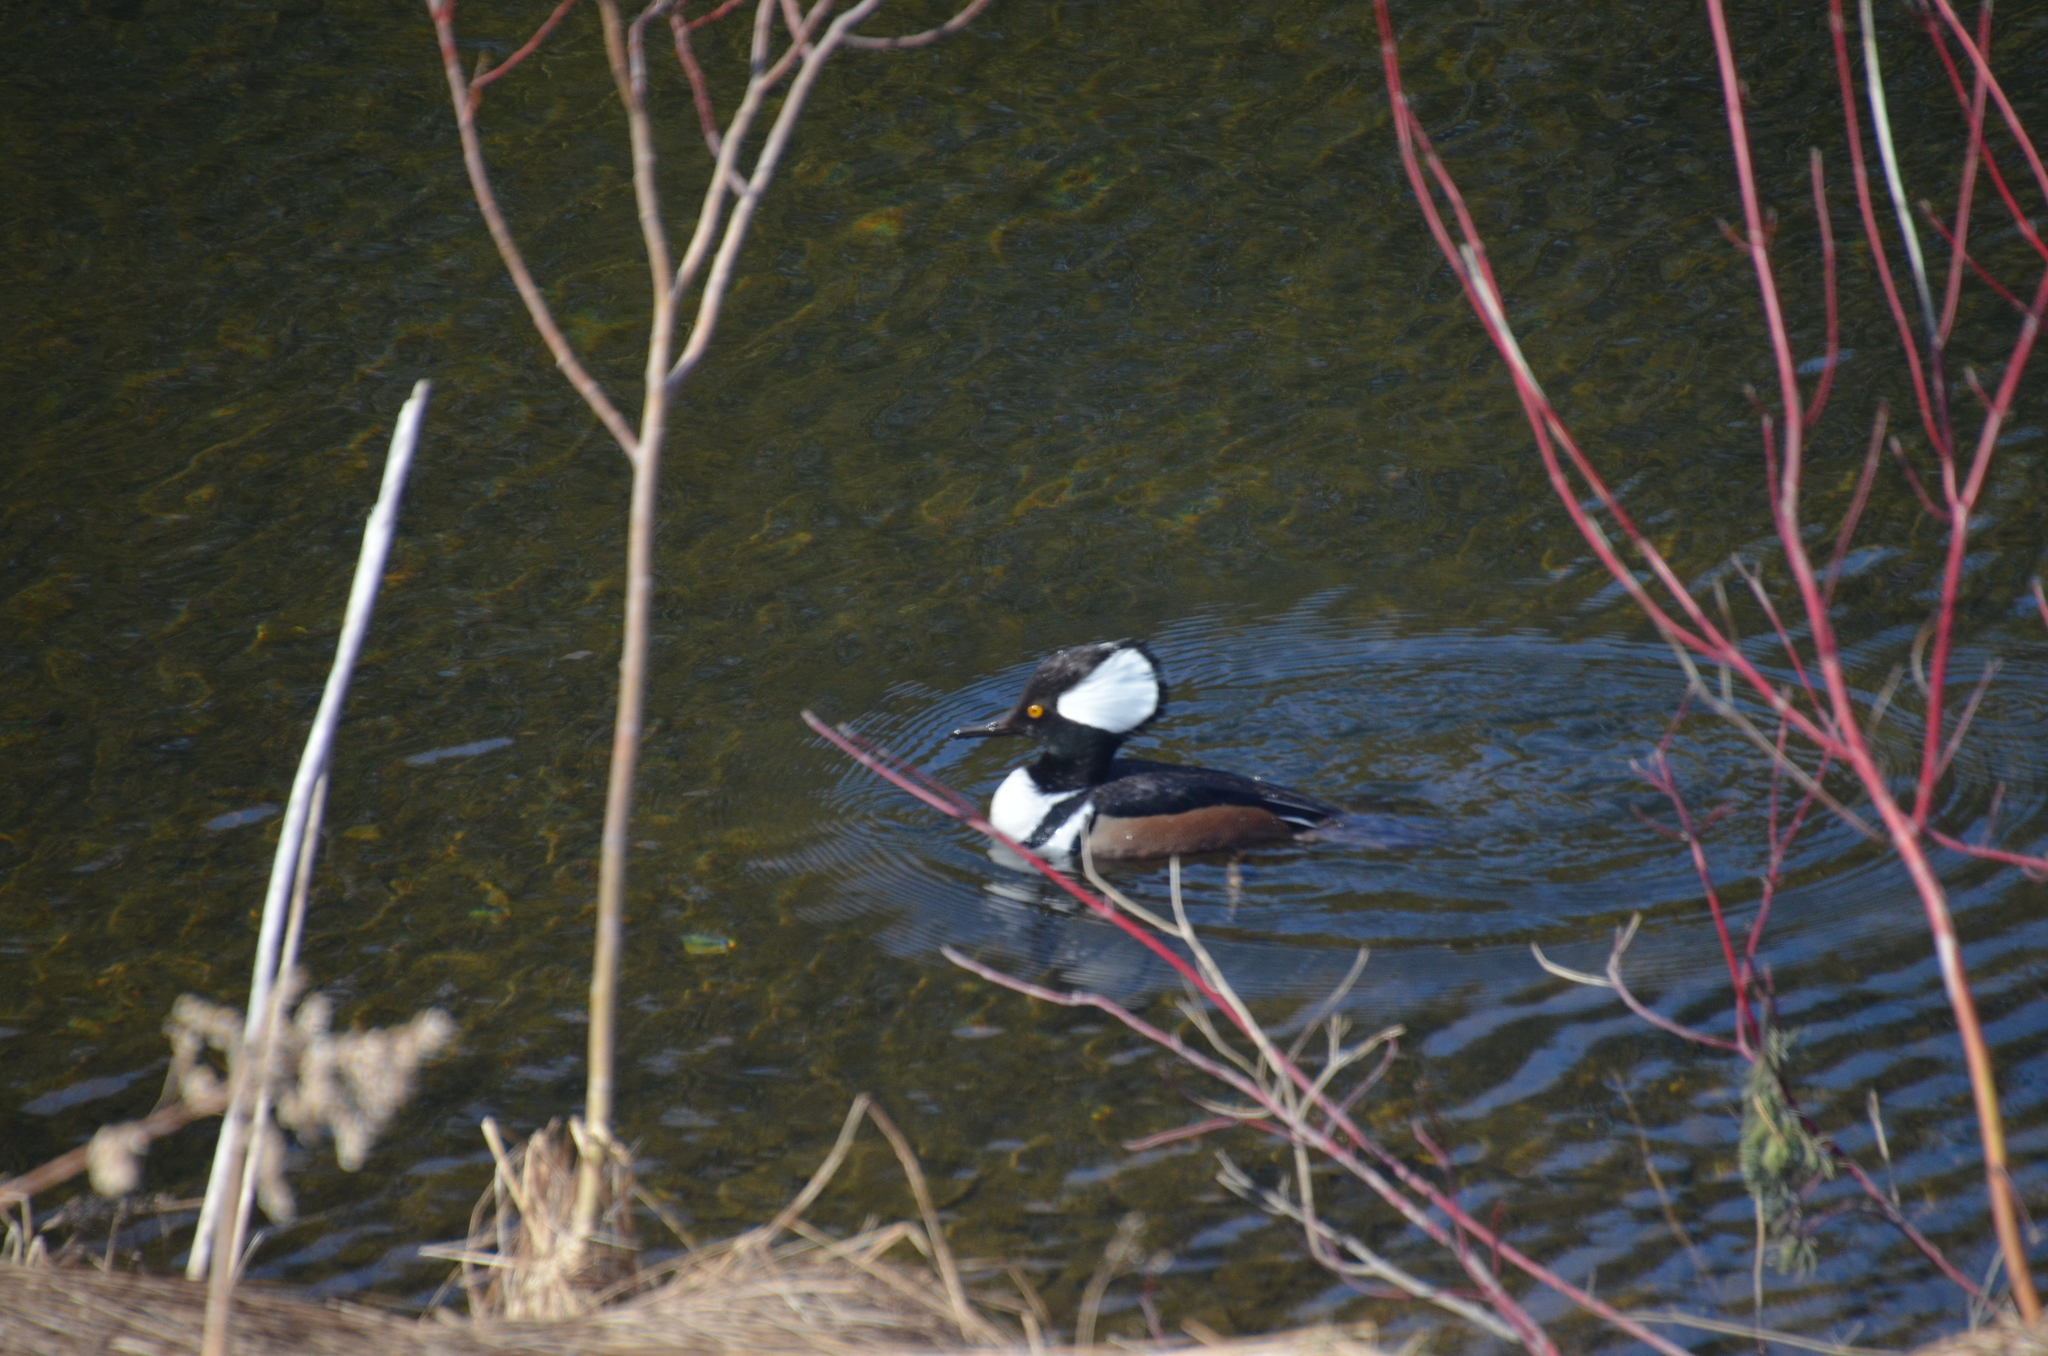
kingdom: Animalia
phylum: Chordata
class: Aves
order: Anseriformes
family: Anatidae
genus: Lophodytes
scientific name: Lophodytes cucullatus
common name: Hooded merganser
